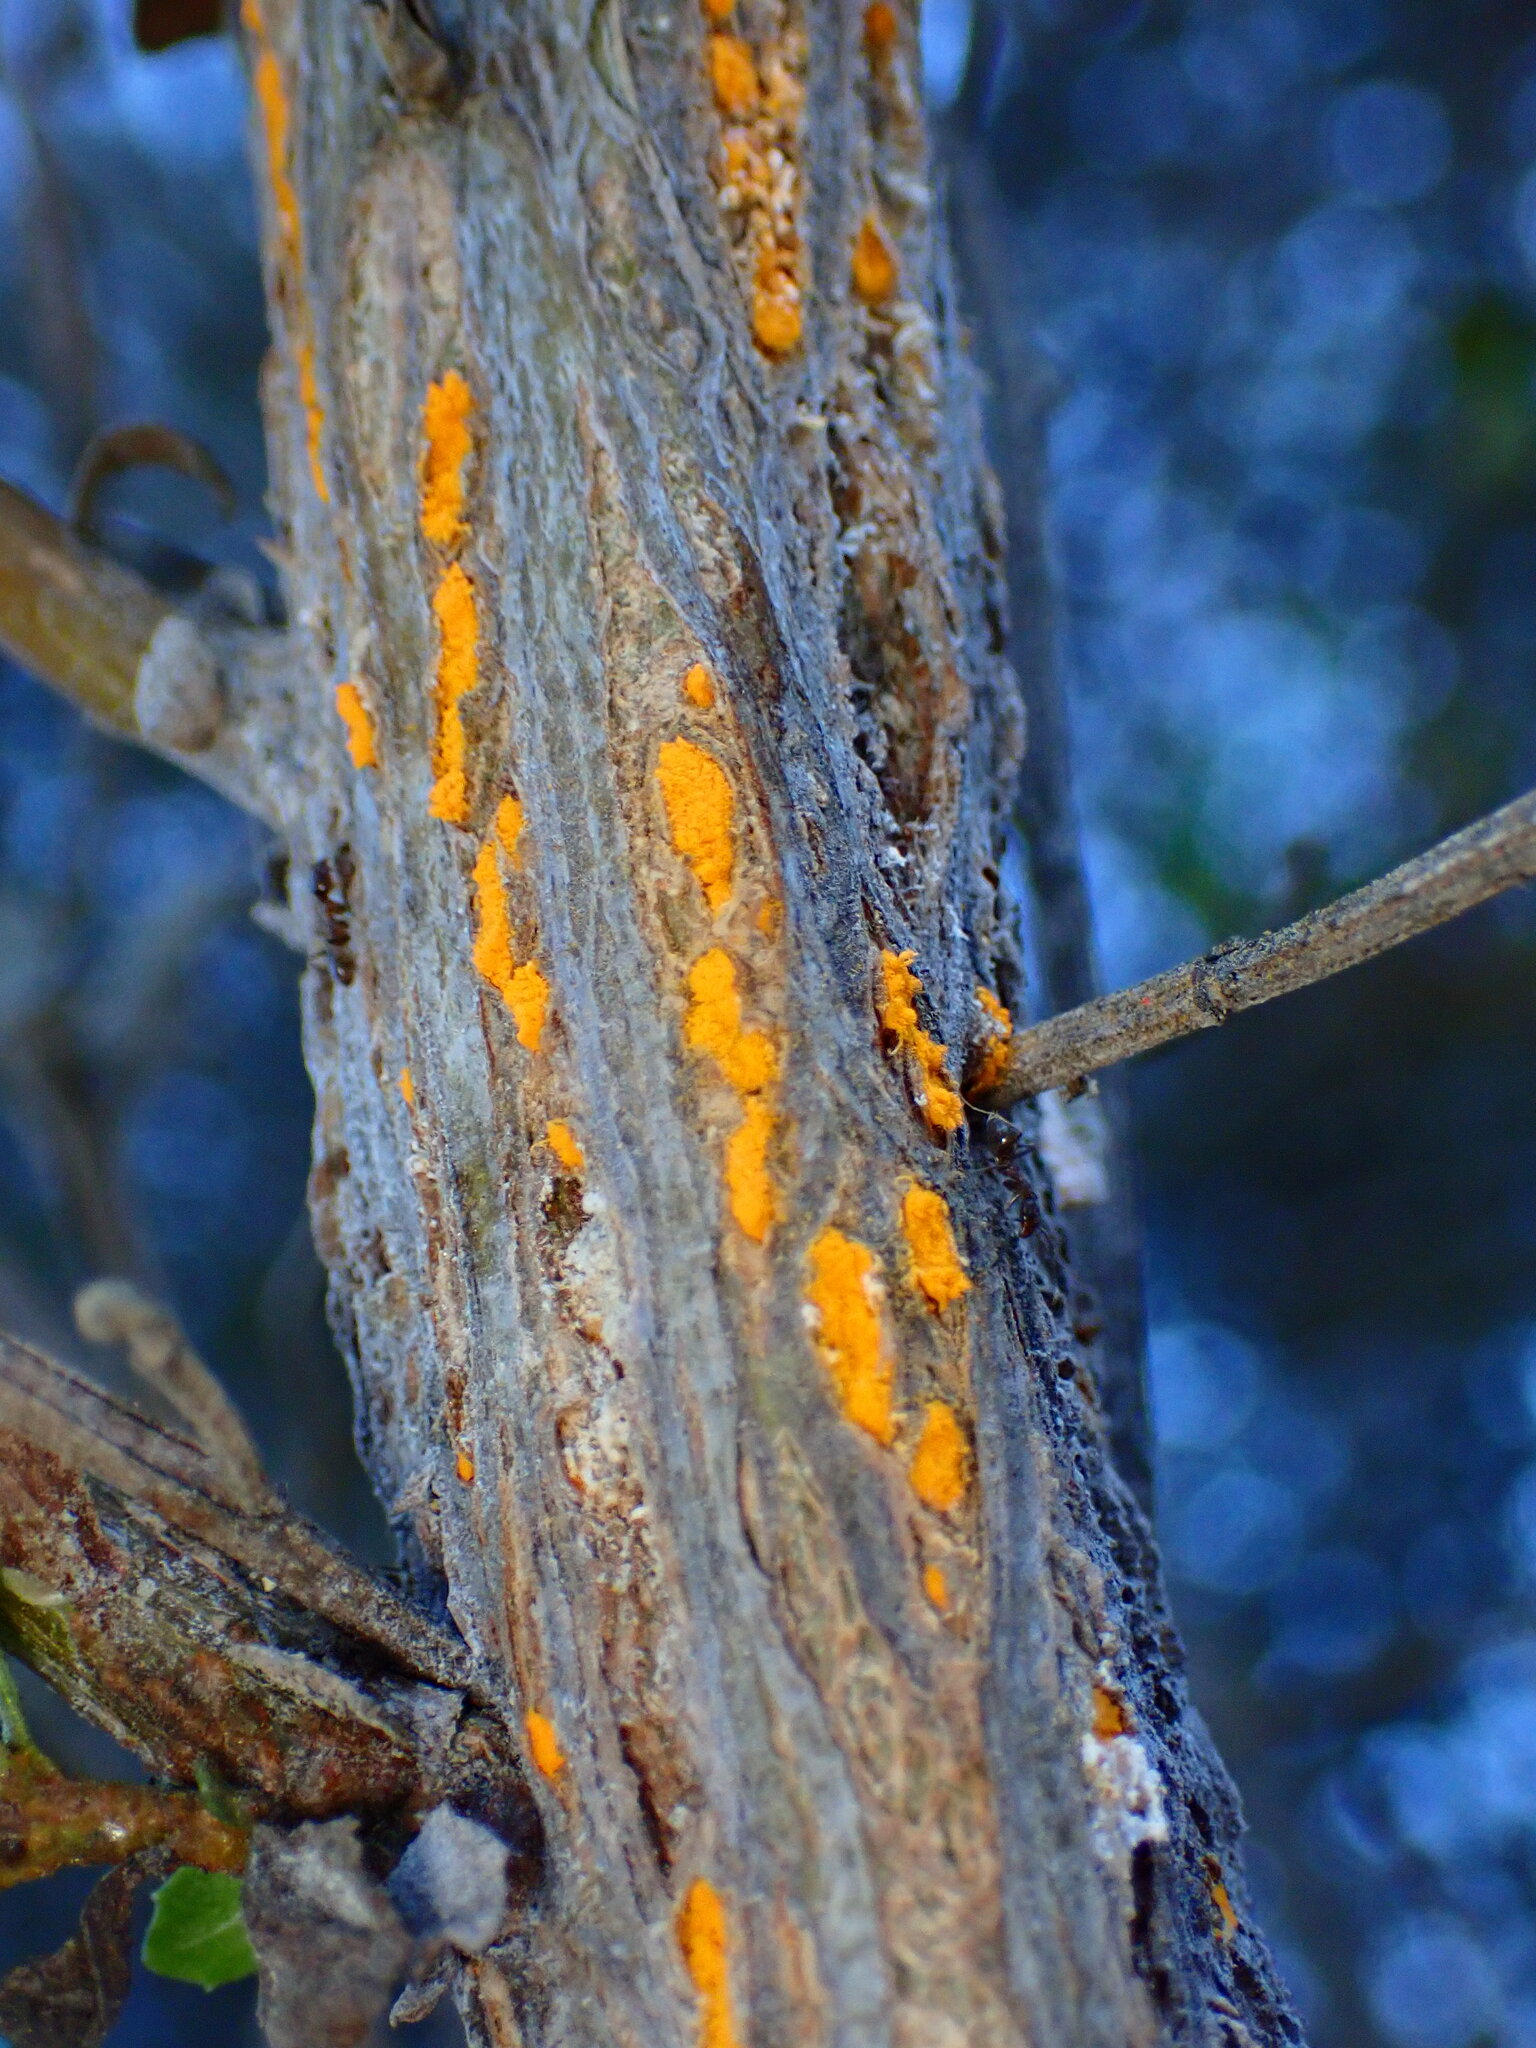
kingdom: Fungi
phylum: Basidiomycota
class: Pucciniomycetes
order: Pucciniales
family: Pucciniaceae
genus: Eriosporangium
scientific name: Eriosporangium evadens
